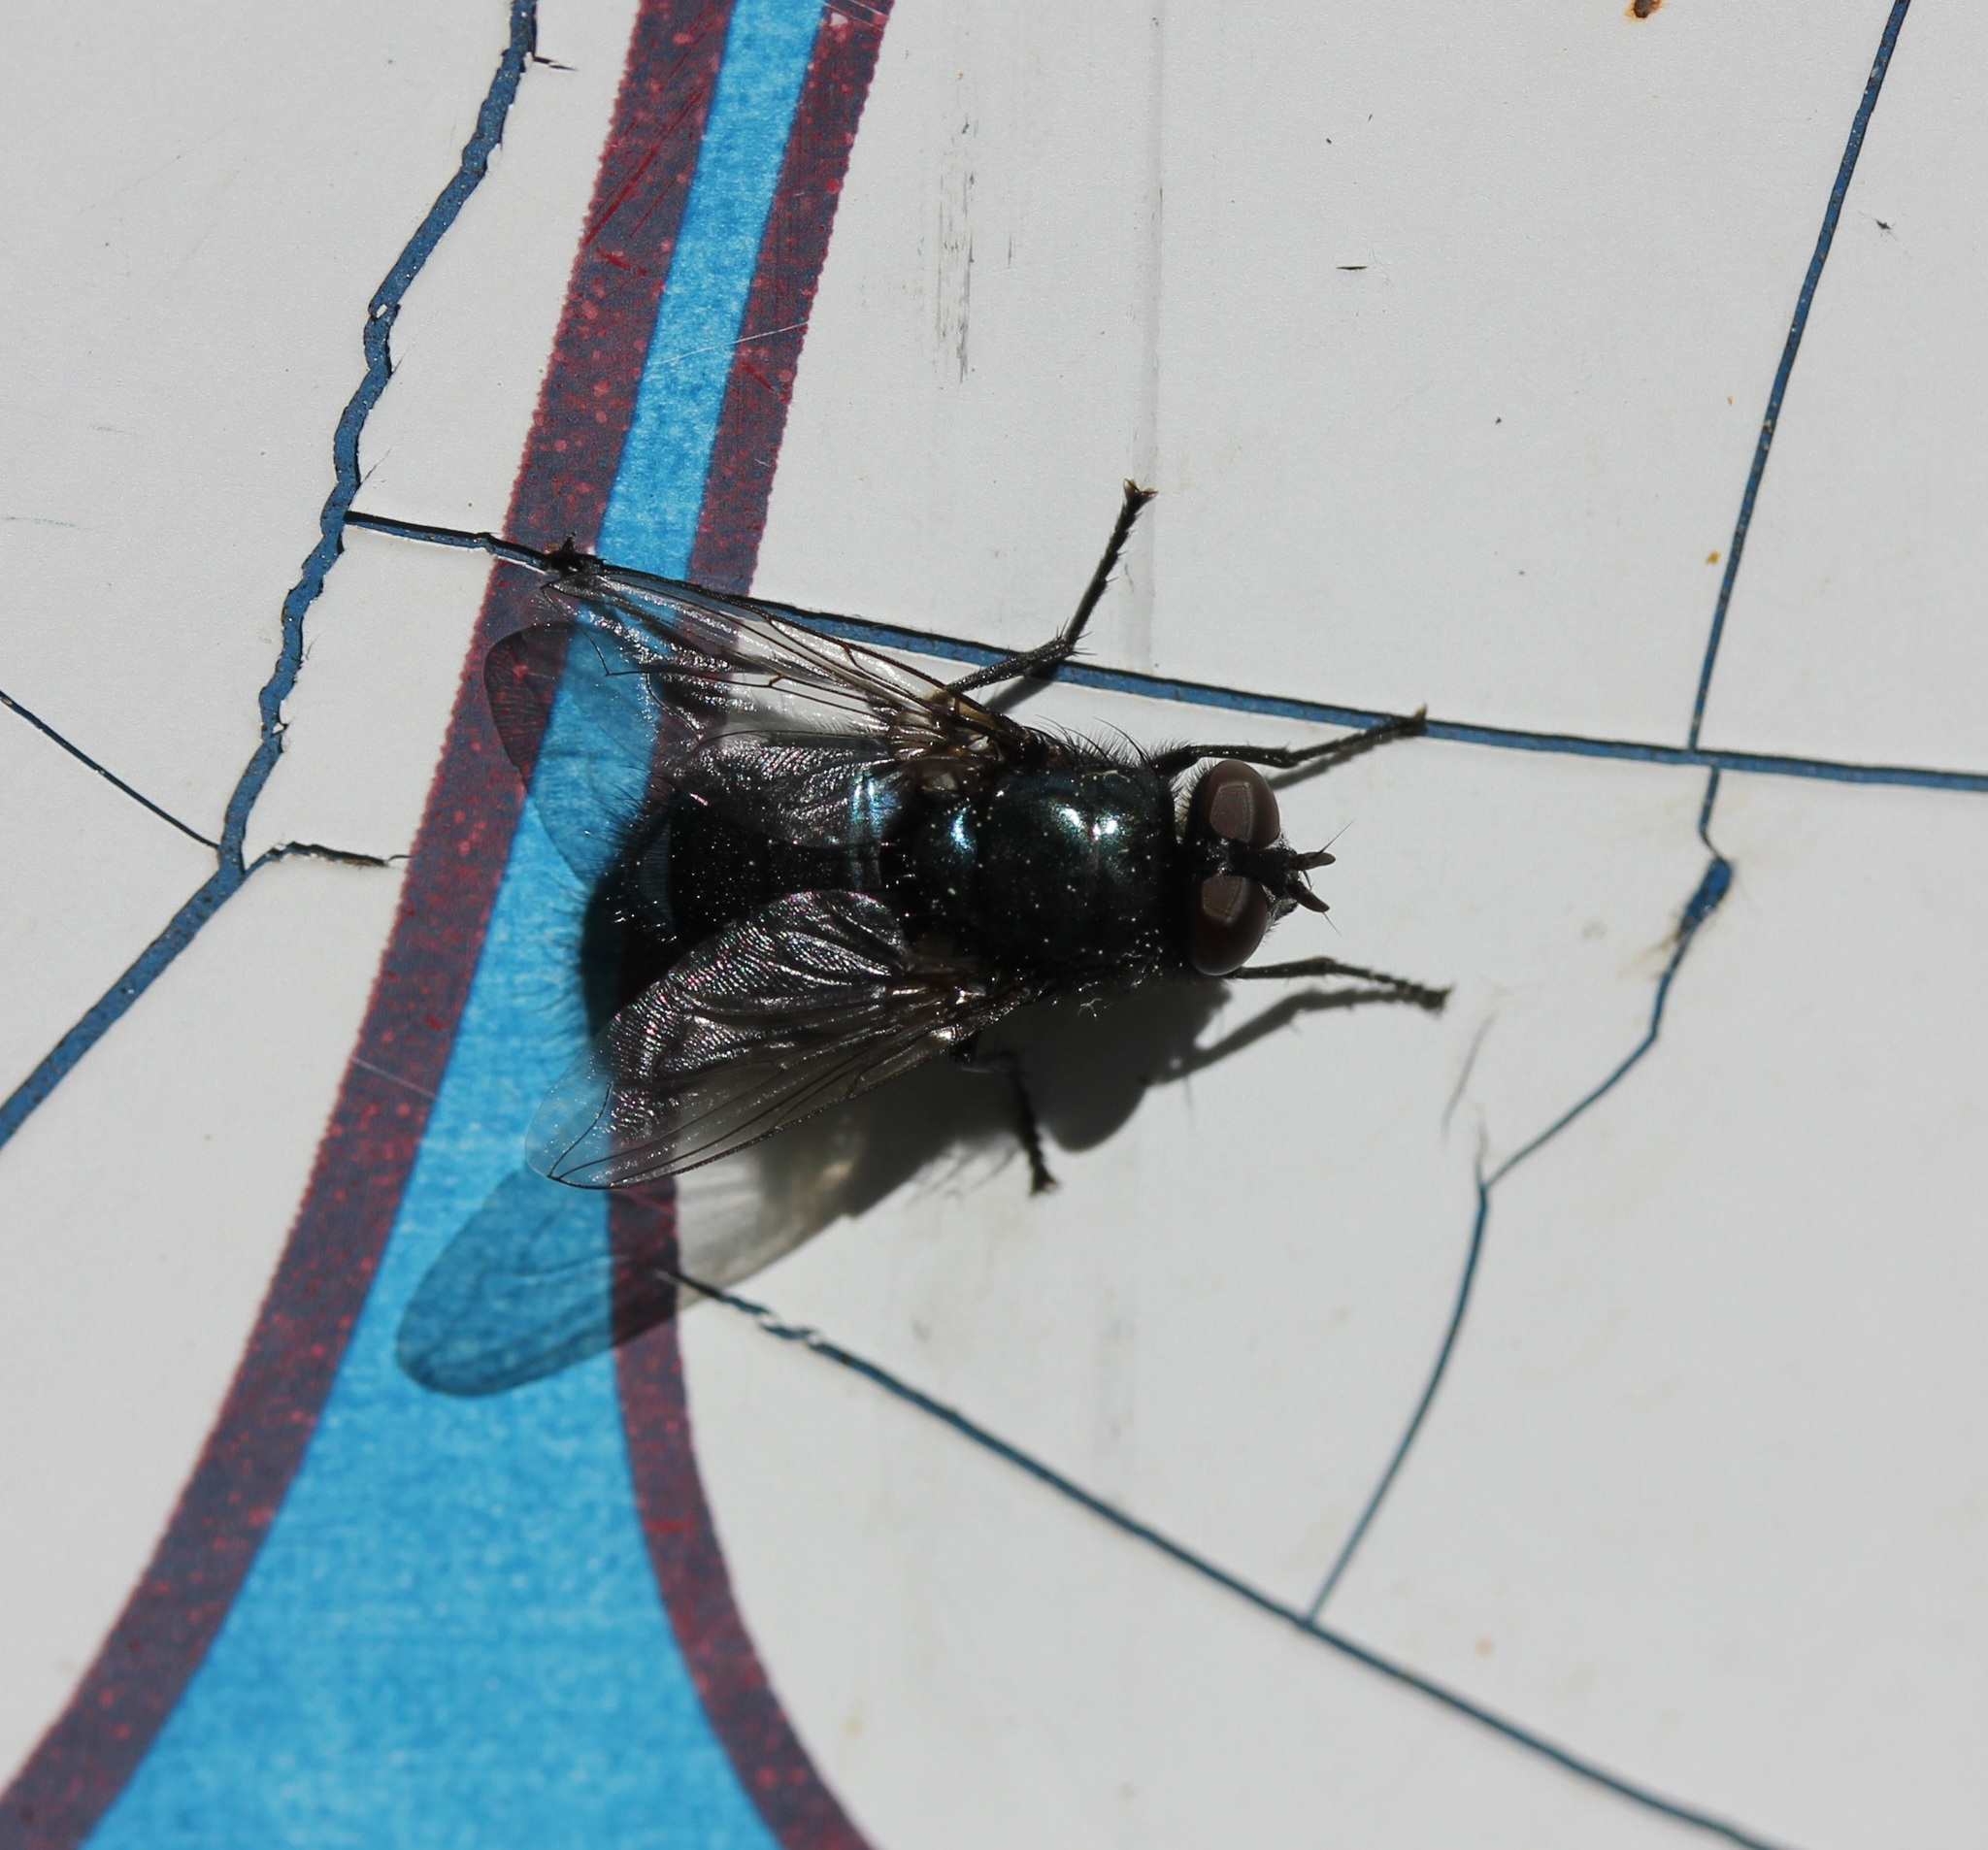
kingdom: Animalia
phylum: Arthropoda
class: Insecta
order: Diptera
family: Calliphoridae
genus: Protophormia
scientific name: Protophormia terraenovae
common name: Blackbottle
